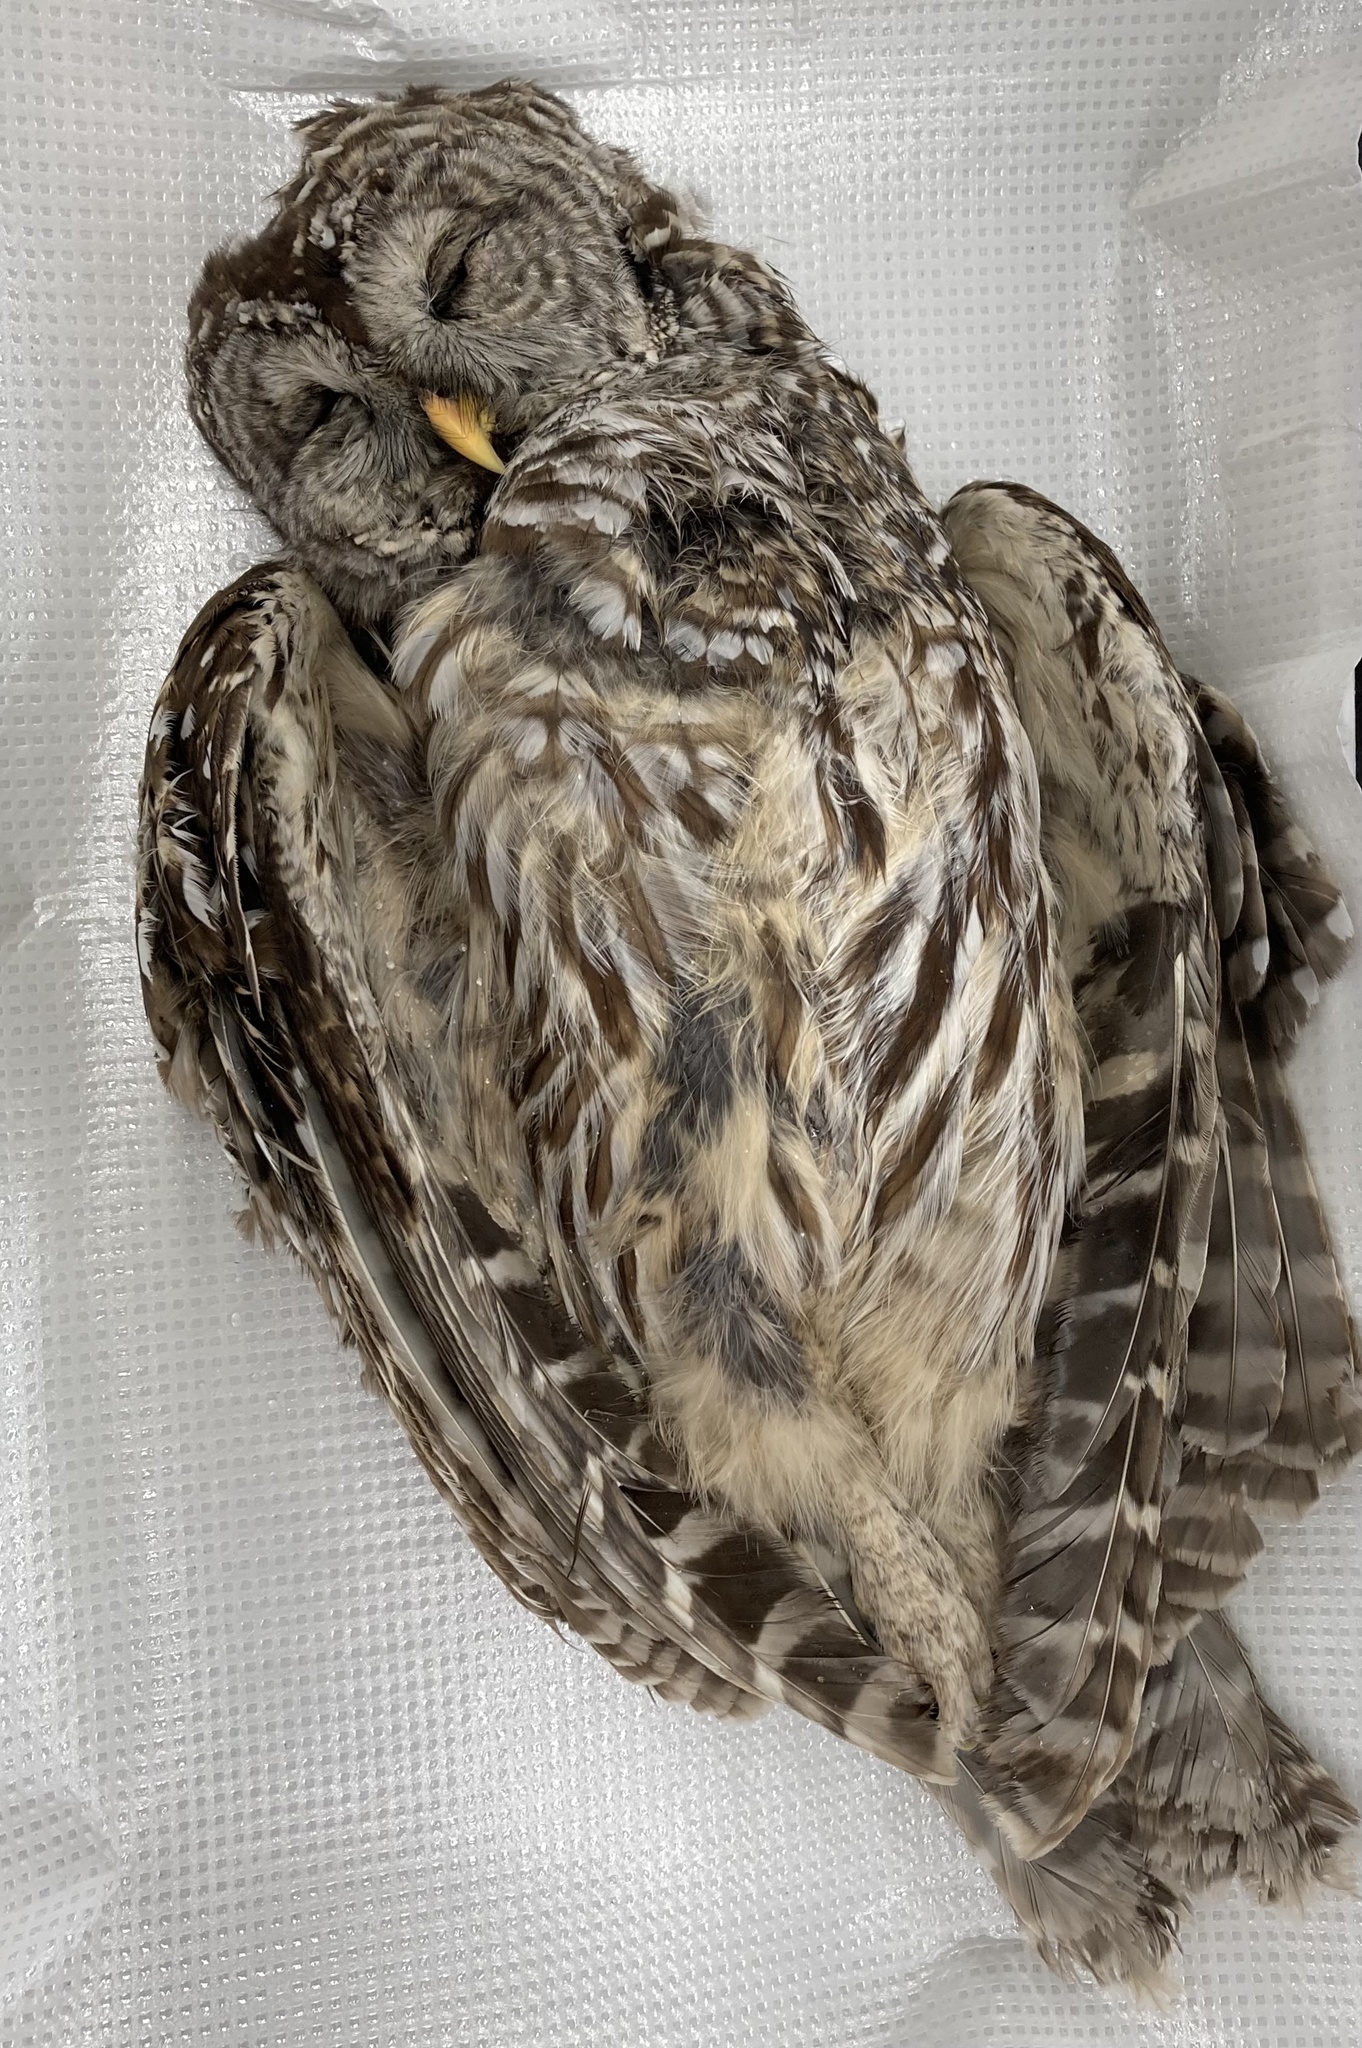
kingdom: Animalia
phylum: Chordata
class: Aves
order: Strigiformes
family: Strigidae
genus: Strix
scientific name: Strix varia
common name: Barred owl
